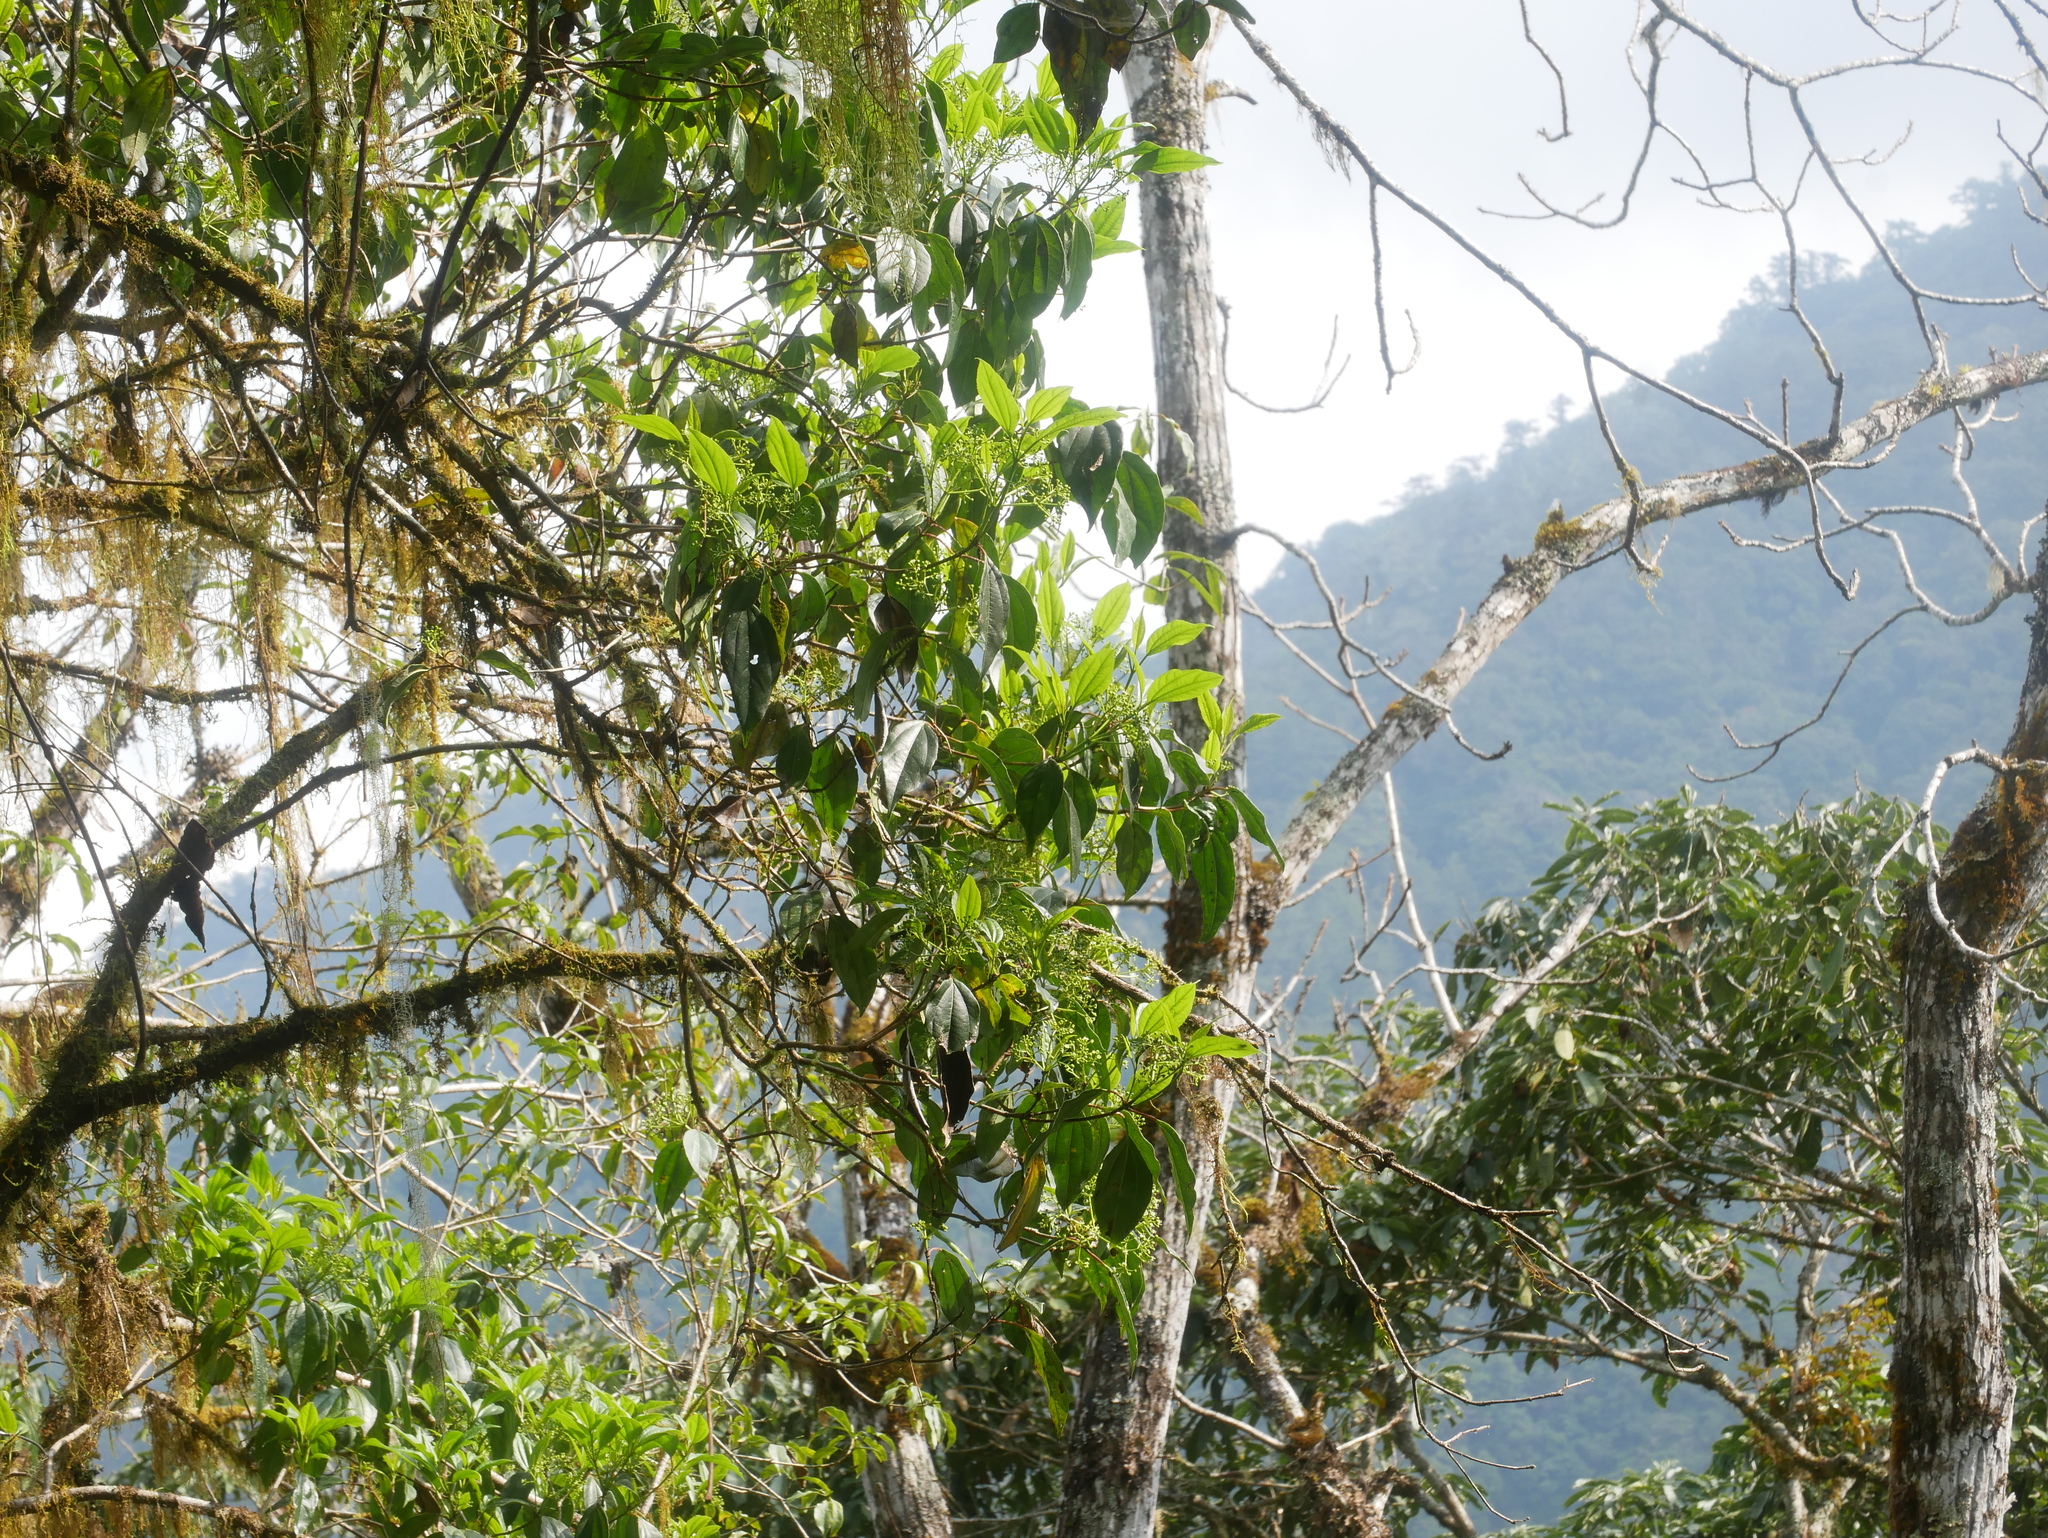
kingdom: Plantae
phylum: Tracheophyta
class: Magnoliopsida
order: Dipsacales
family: Viburnaceae
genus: Viburnum
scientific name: Viburnum propinquum
